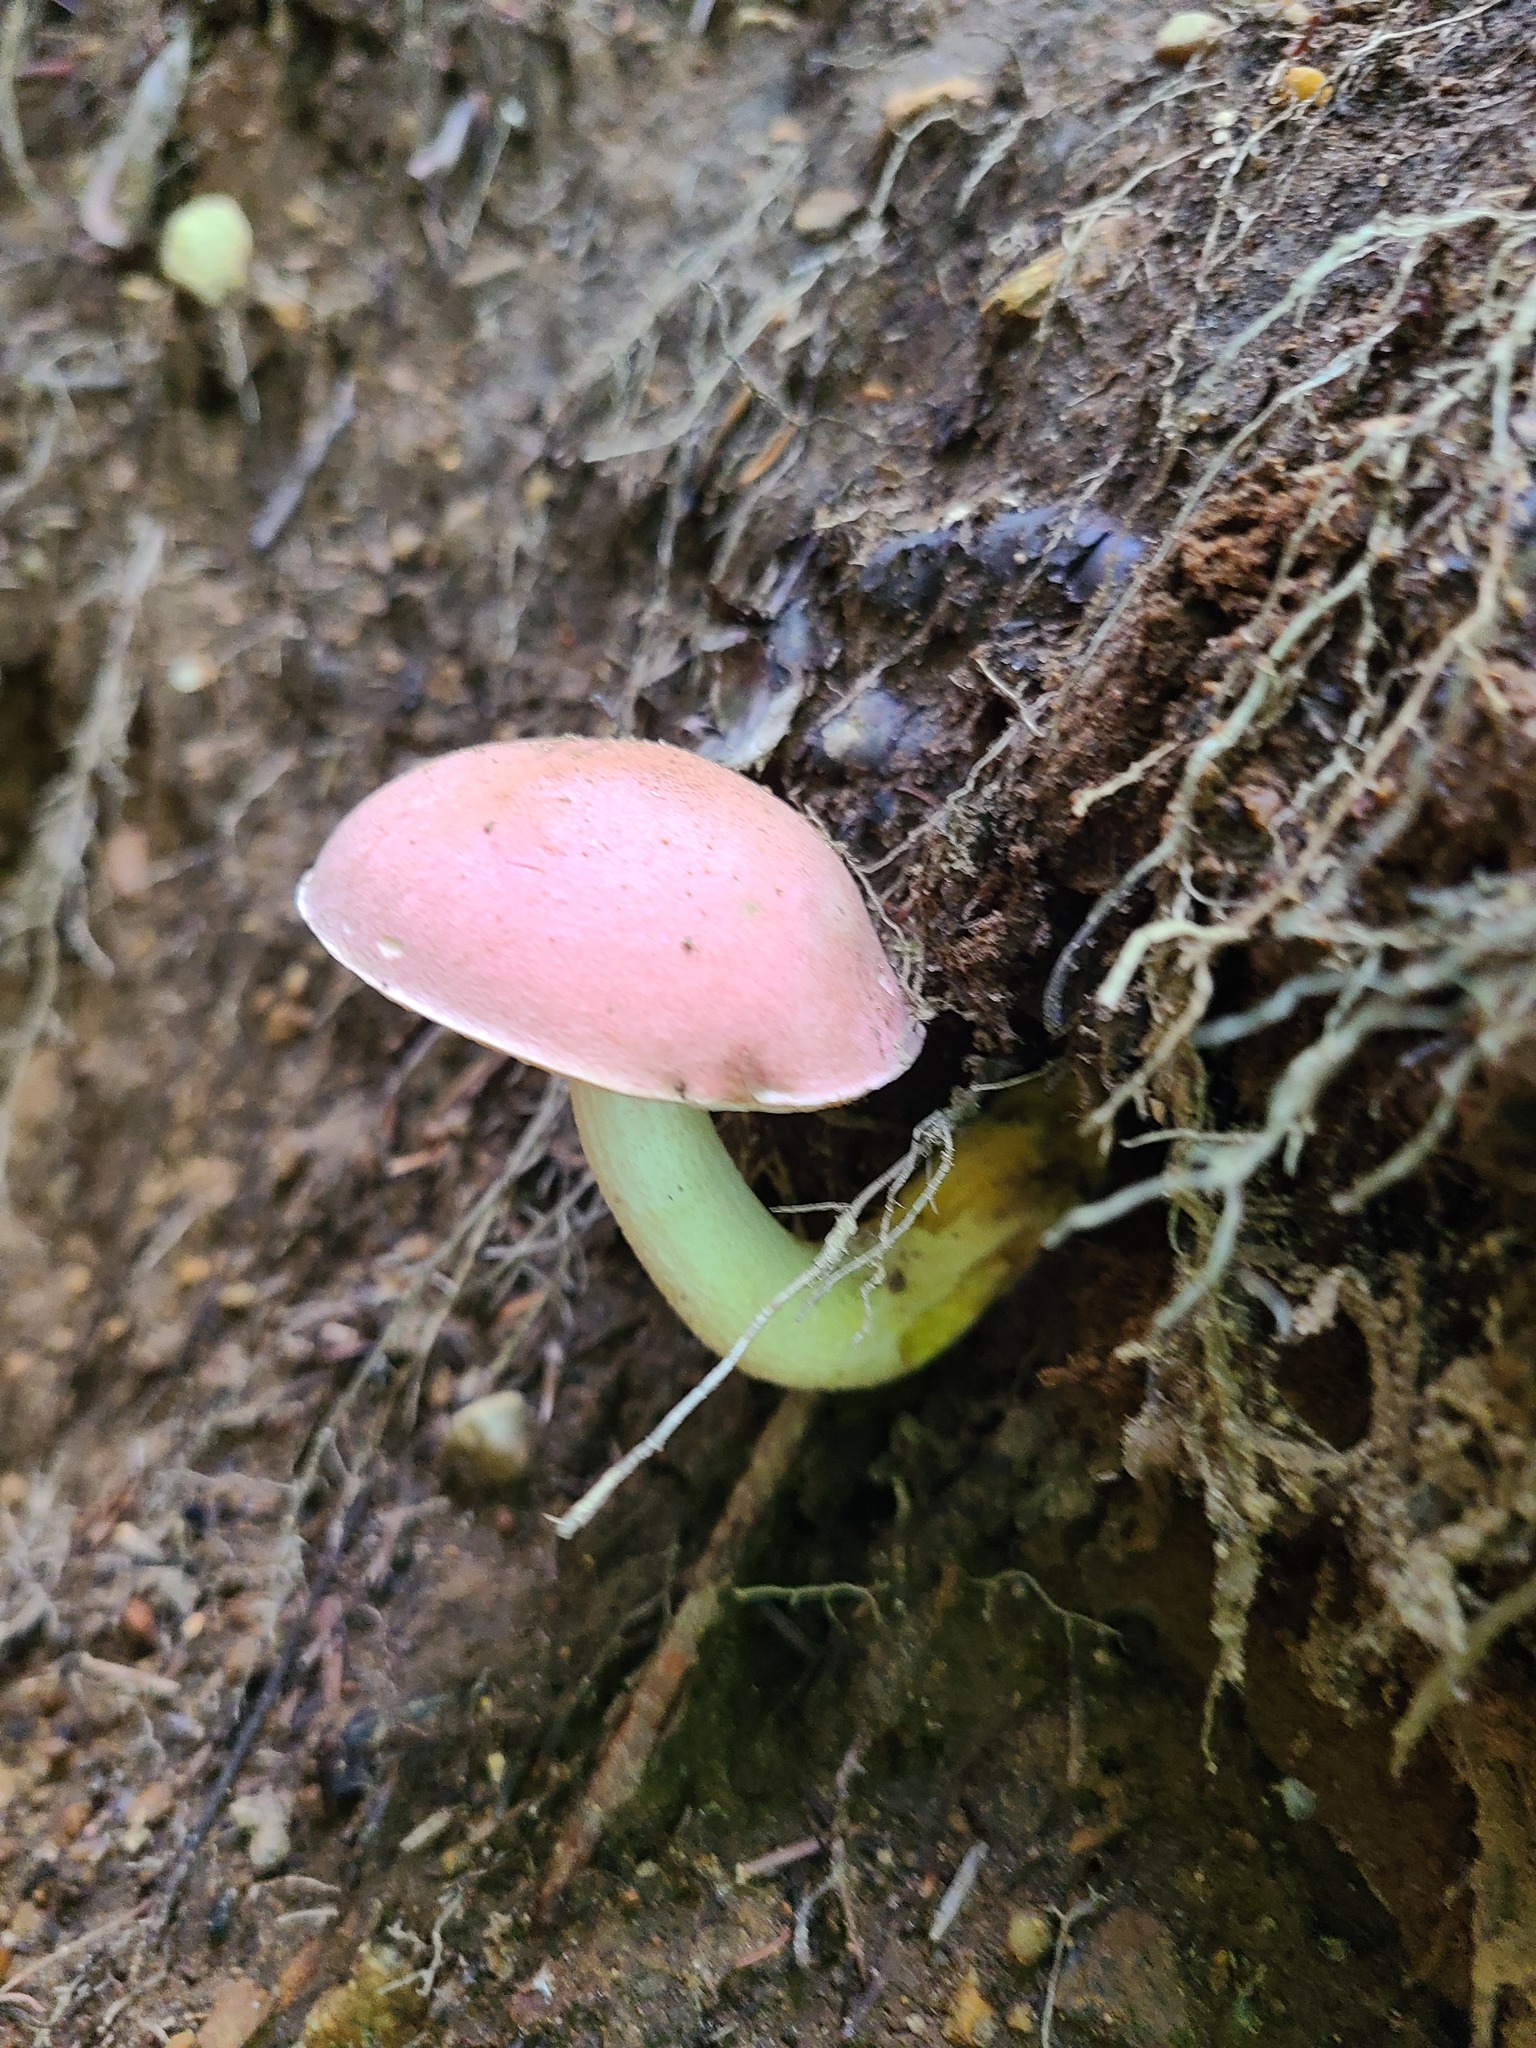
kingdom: Fungi
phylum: Basidiomycota
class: Agaricomycetes
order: Boletales
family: Boletaceae
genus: Harrya
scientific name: Harrya chromipes
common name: Chrome-footed bolete
